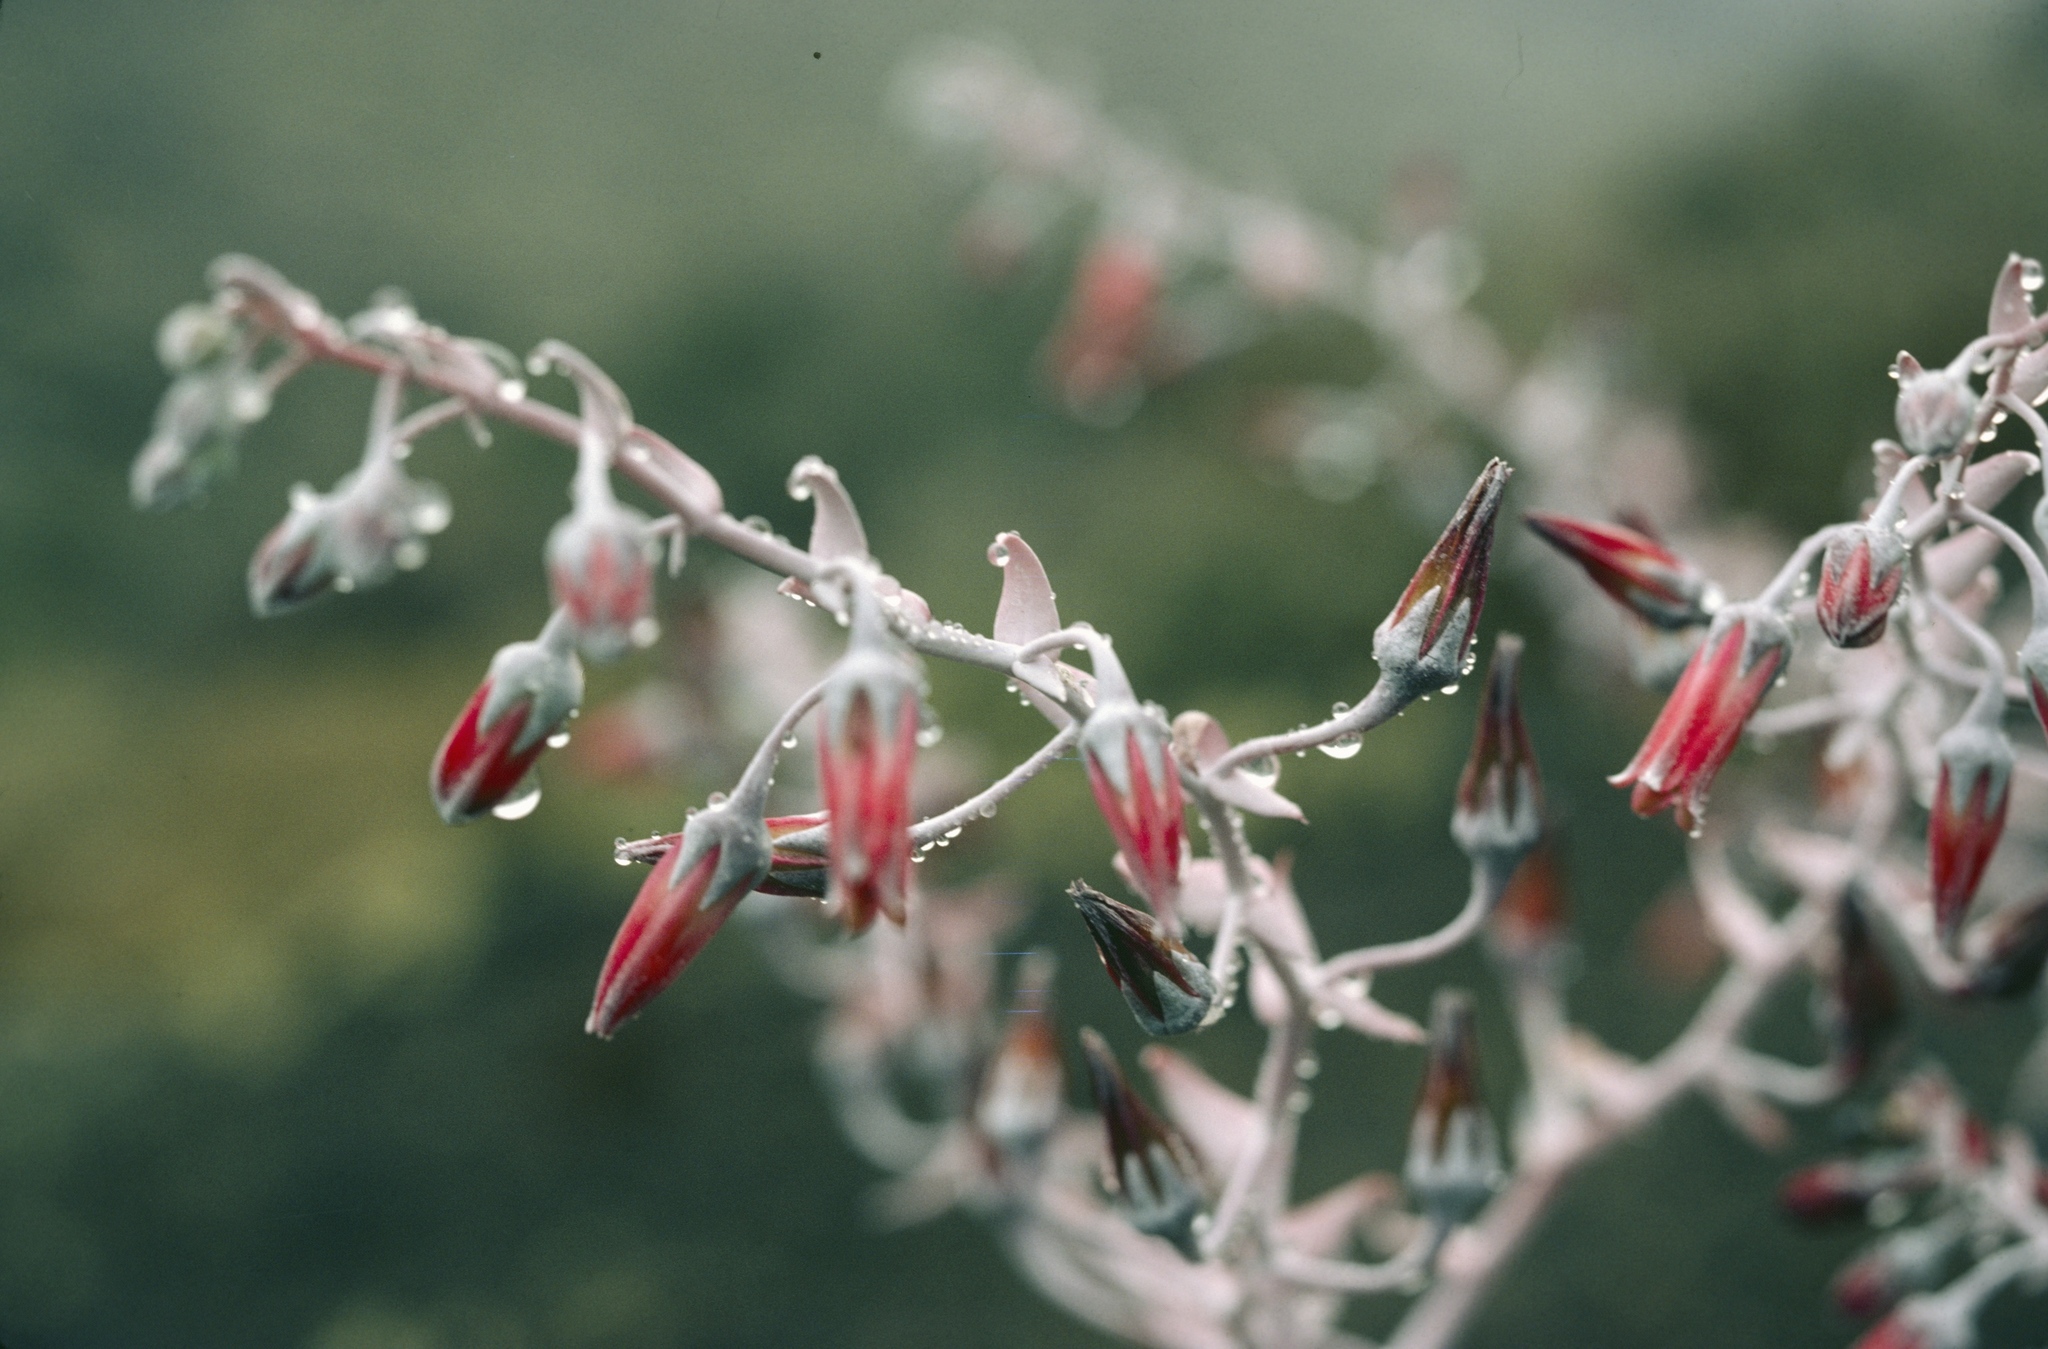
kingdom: Plantae
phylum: Tracheophyta
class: Magnoliopsida
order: Saxifragales
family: Crassulaceae
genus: Dudleya
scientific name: Dudleya anthonyi
